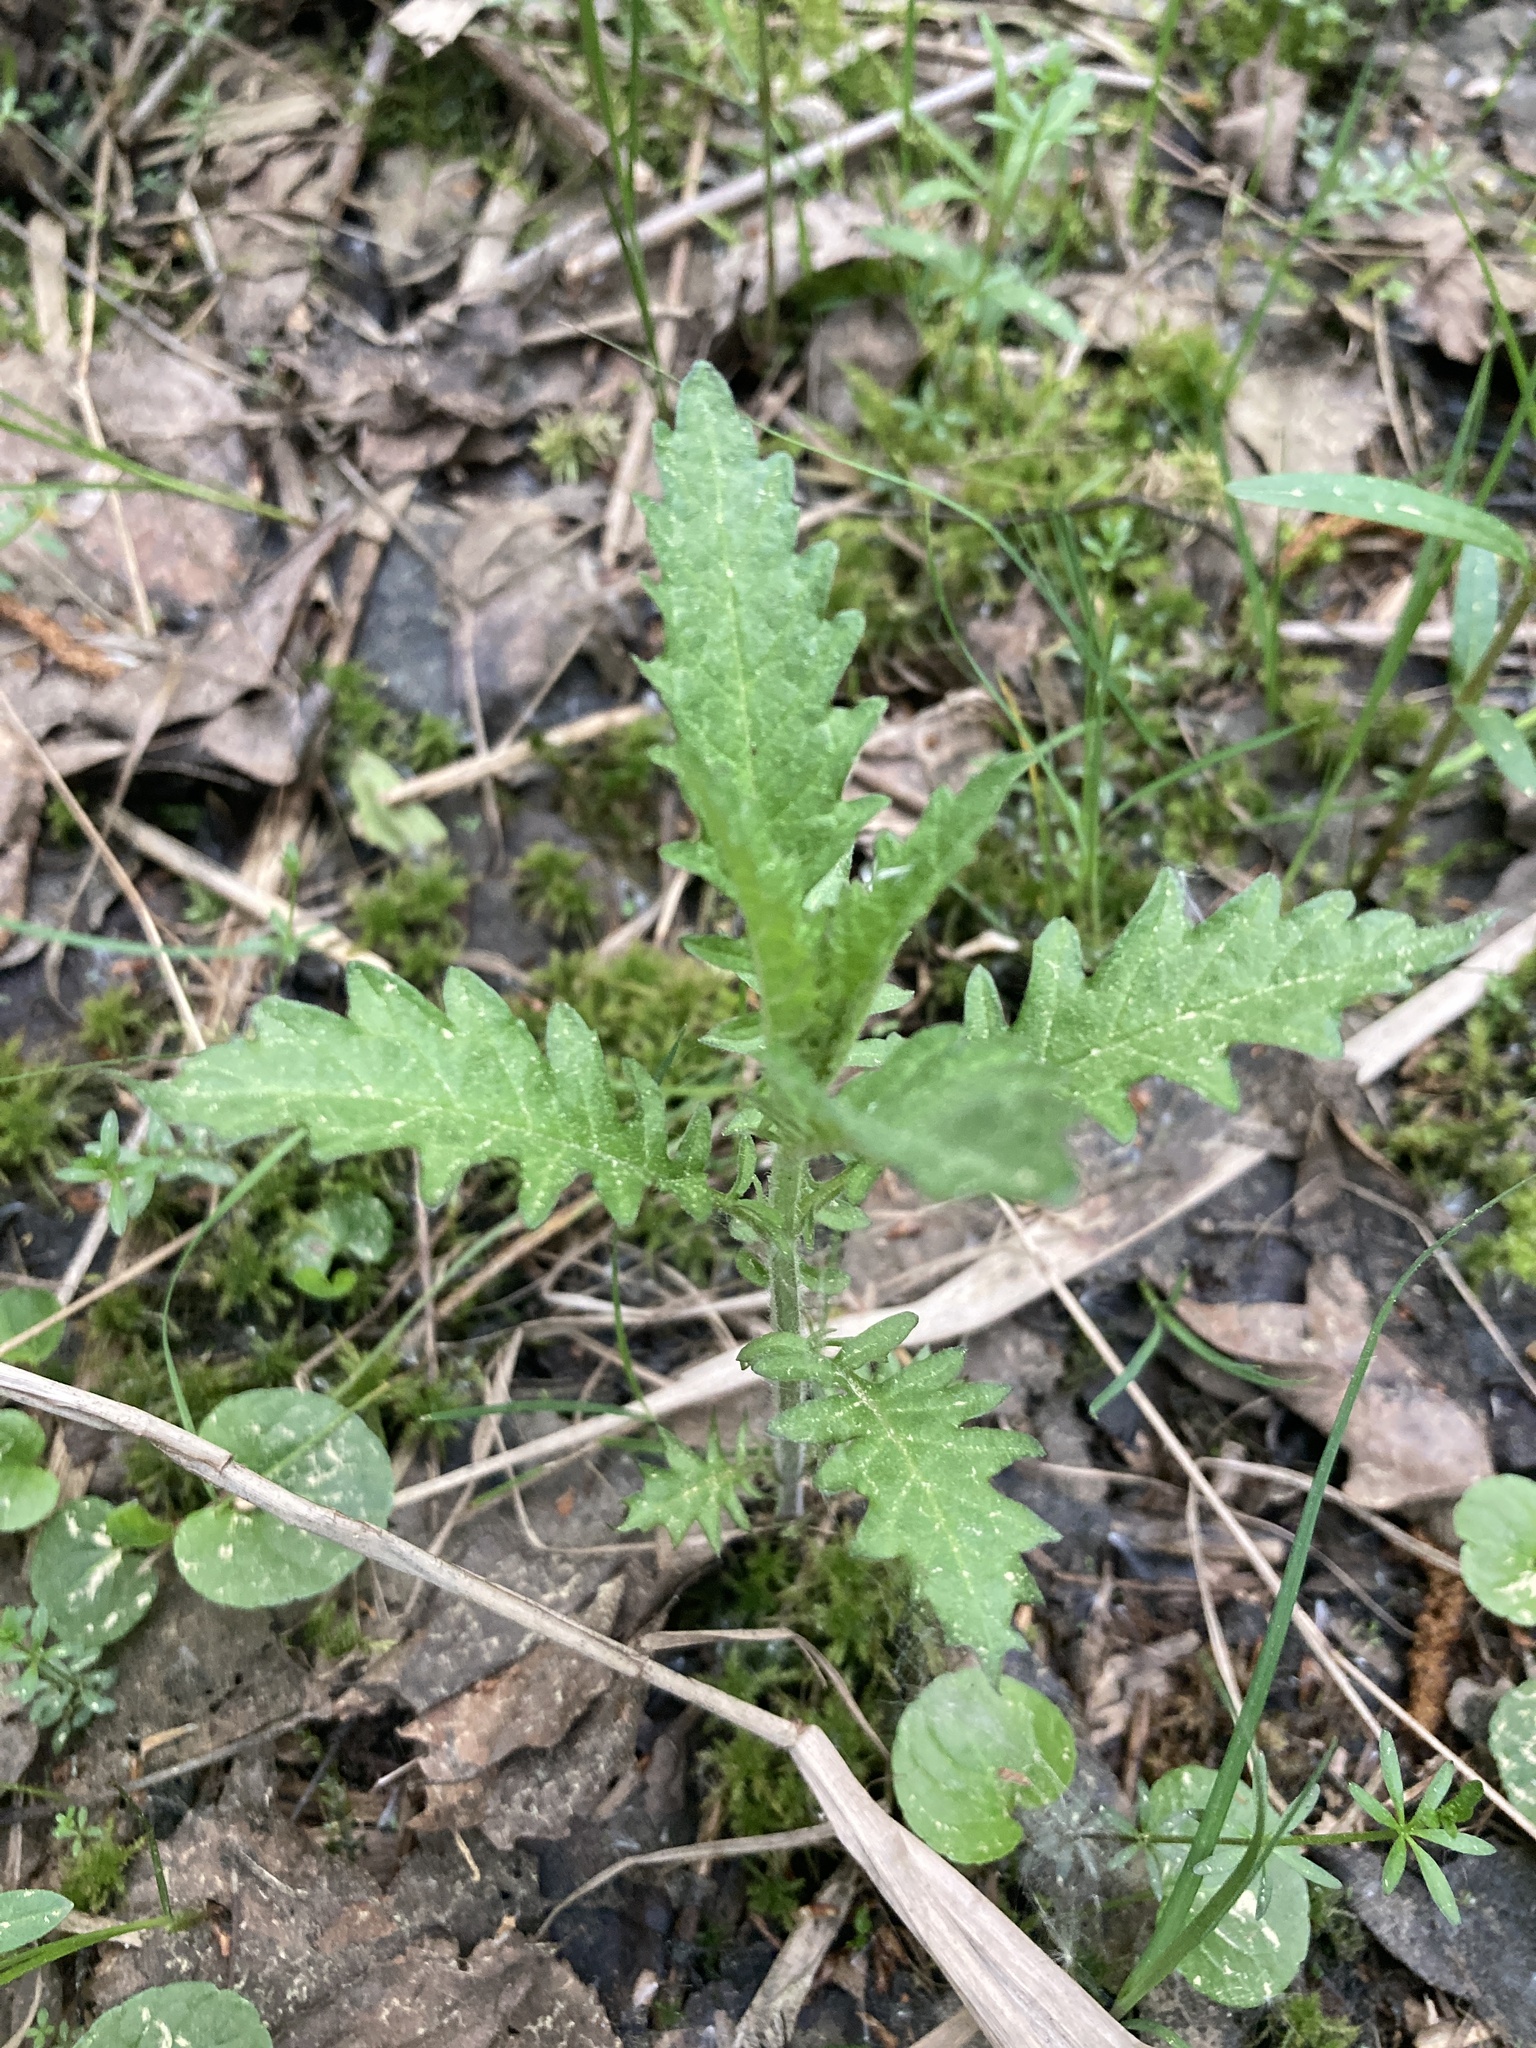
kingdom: Plantae
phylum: Tracheophyta
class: Magnoliopsida
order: Lamiales
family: Lamiaceae
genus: Lycopus
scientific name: Lycopus europaeus
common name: European bugleweed
